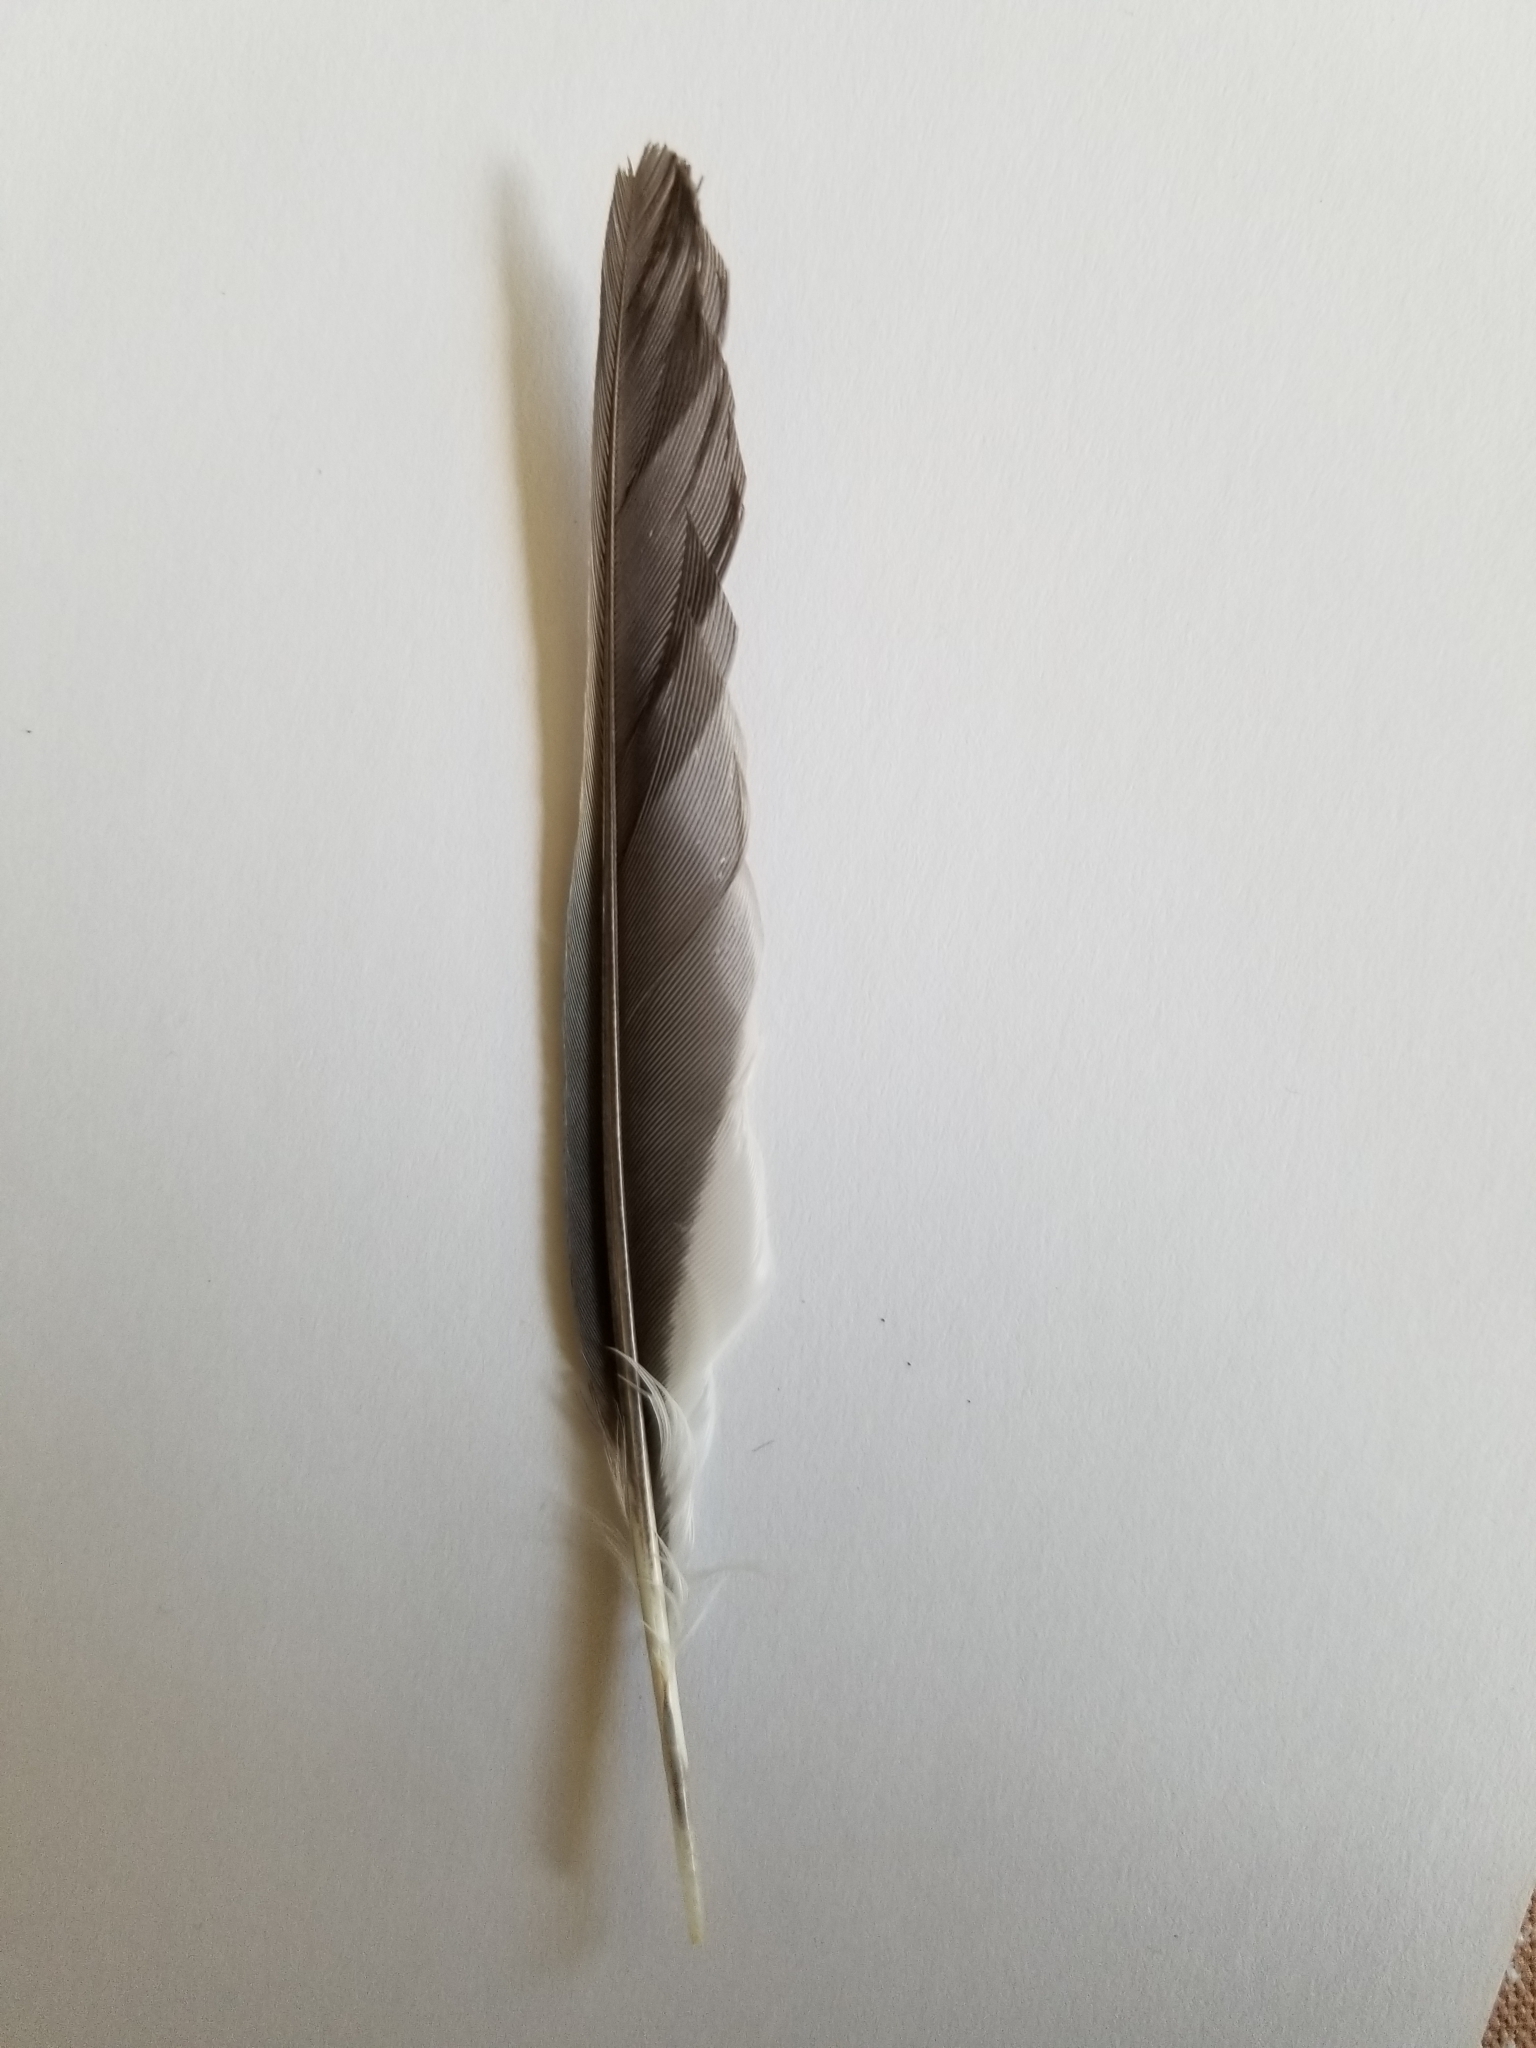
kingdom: Animalia
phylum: Chordata
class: Aves
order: Passeriformes
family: Corvidae
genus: Cyanocitta
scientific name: Cyanocitta cristata
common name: Blue jay
